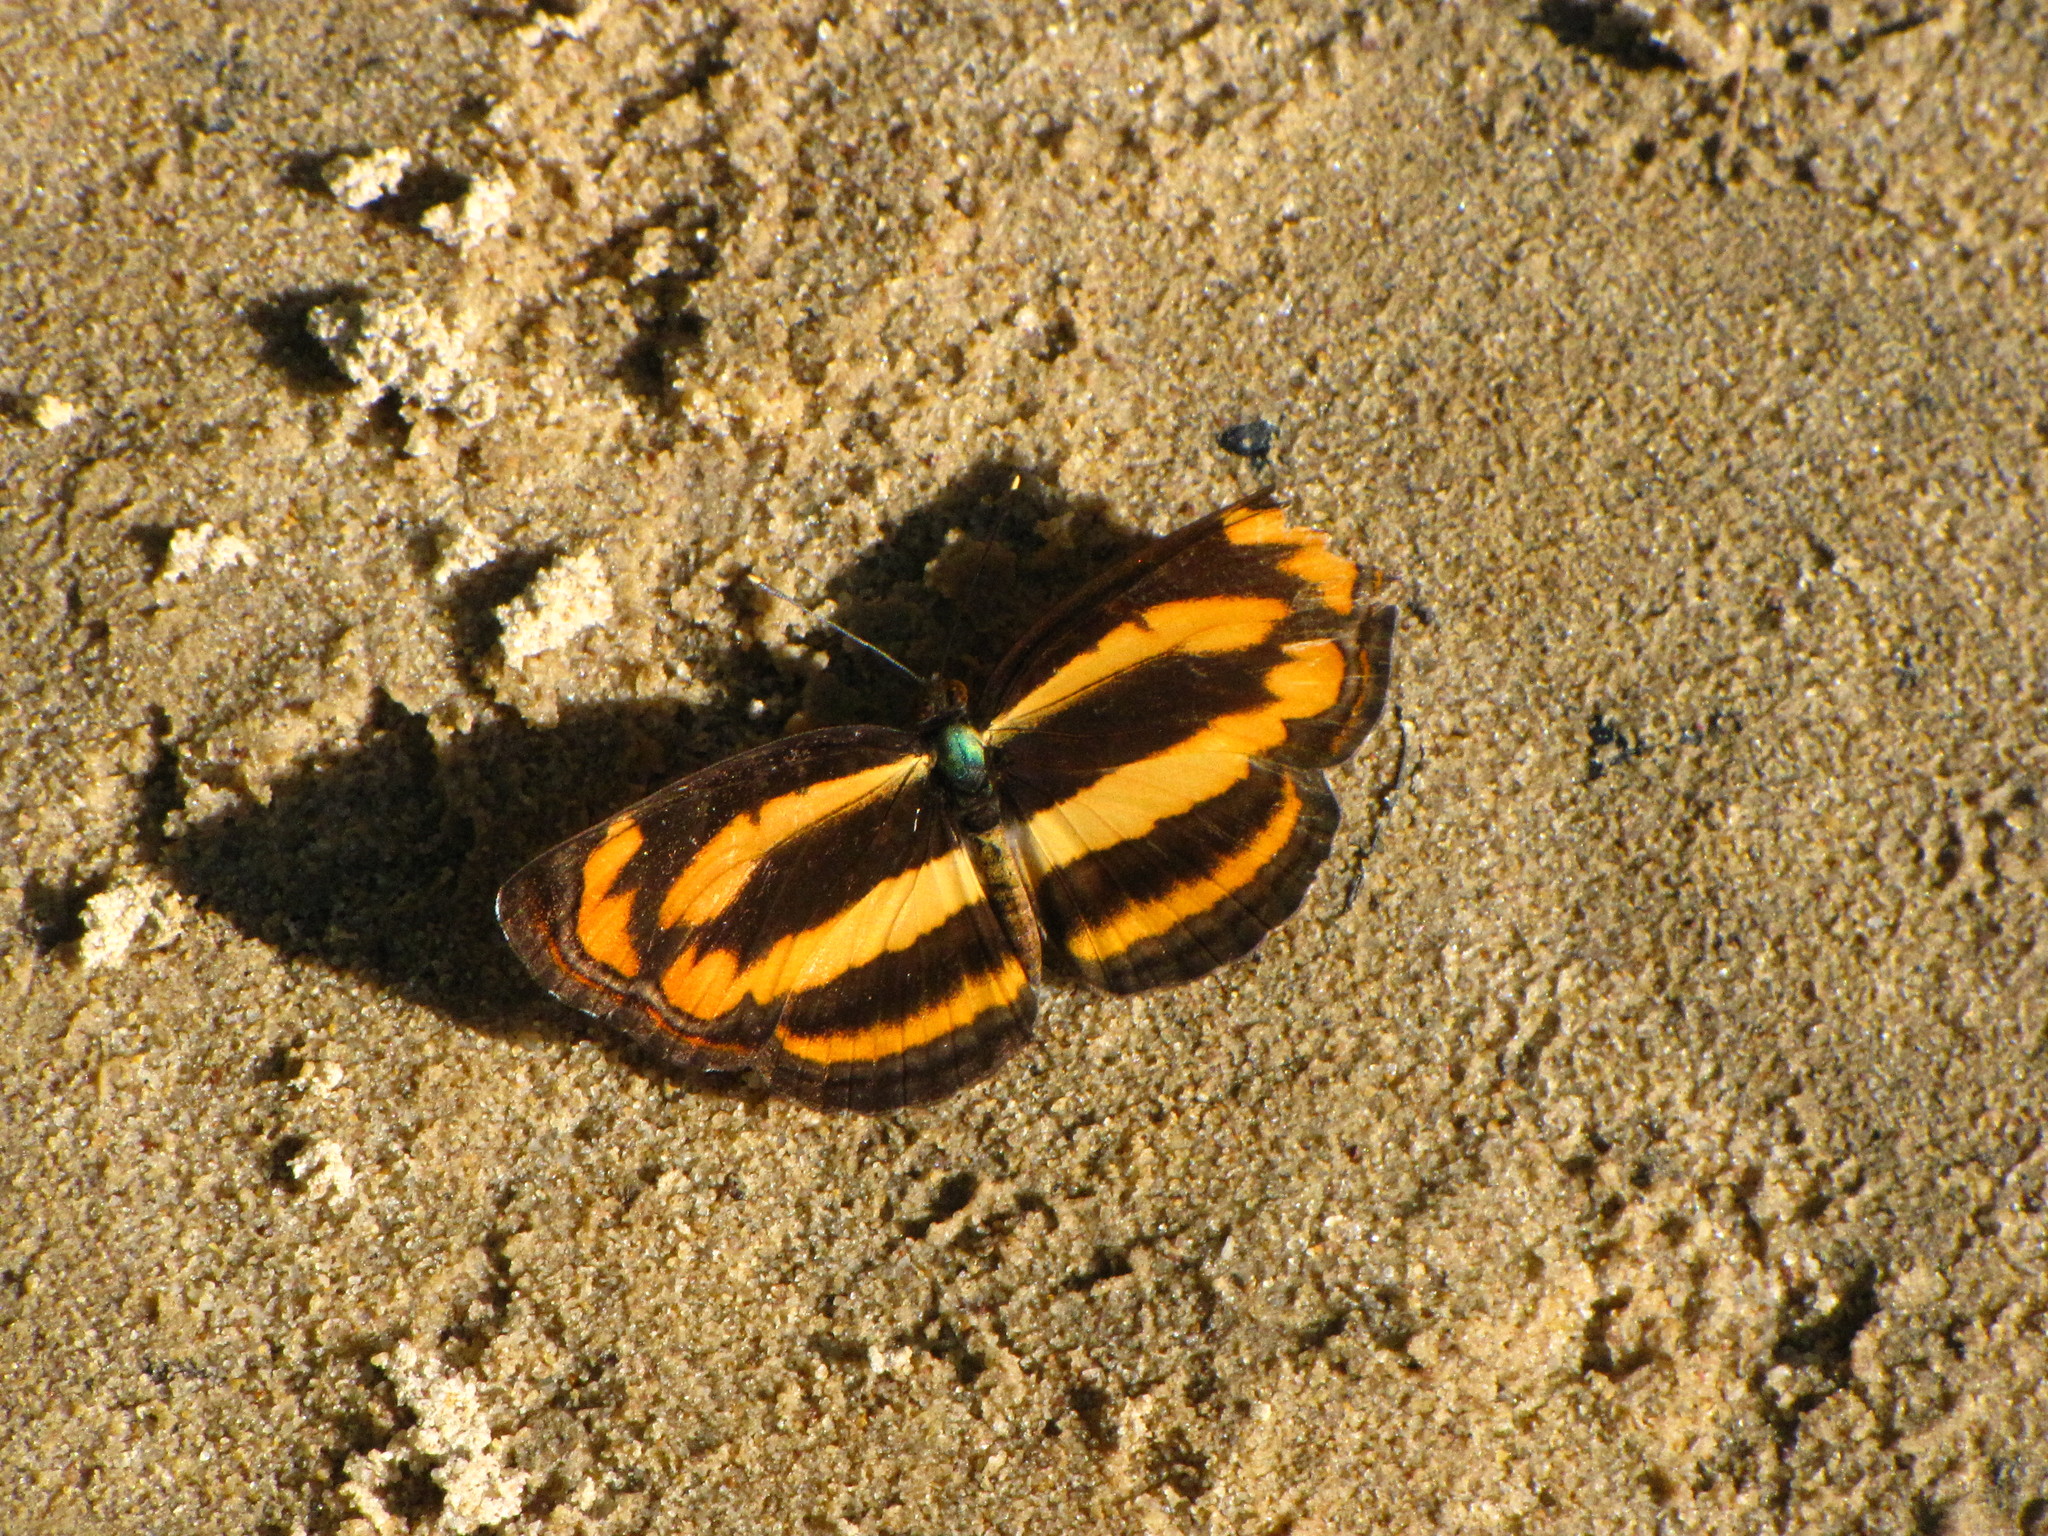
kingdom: Animalia
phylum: Arthropoda
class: Insecta
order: Lepidoptera
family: Nymphalidae
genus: Pantoporia
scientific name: Pantoporia hordonia
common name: Common lascar
